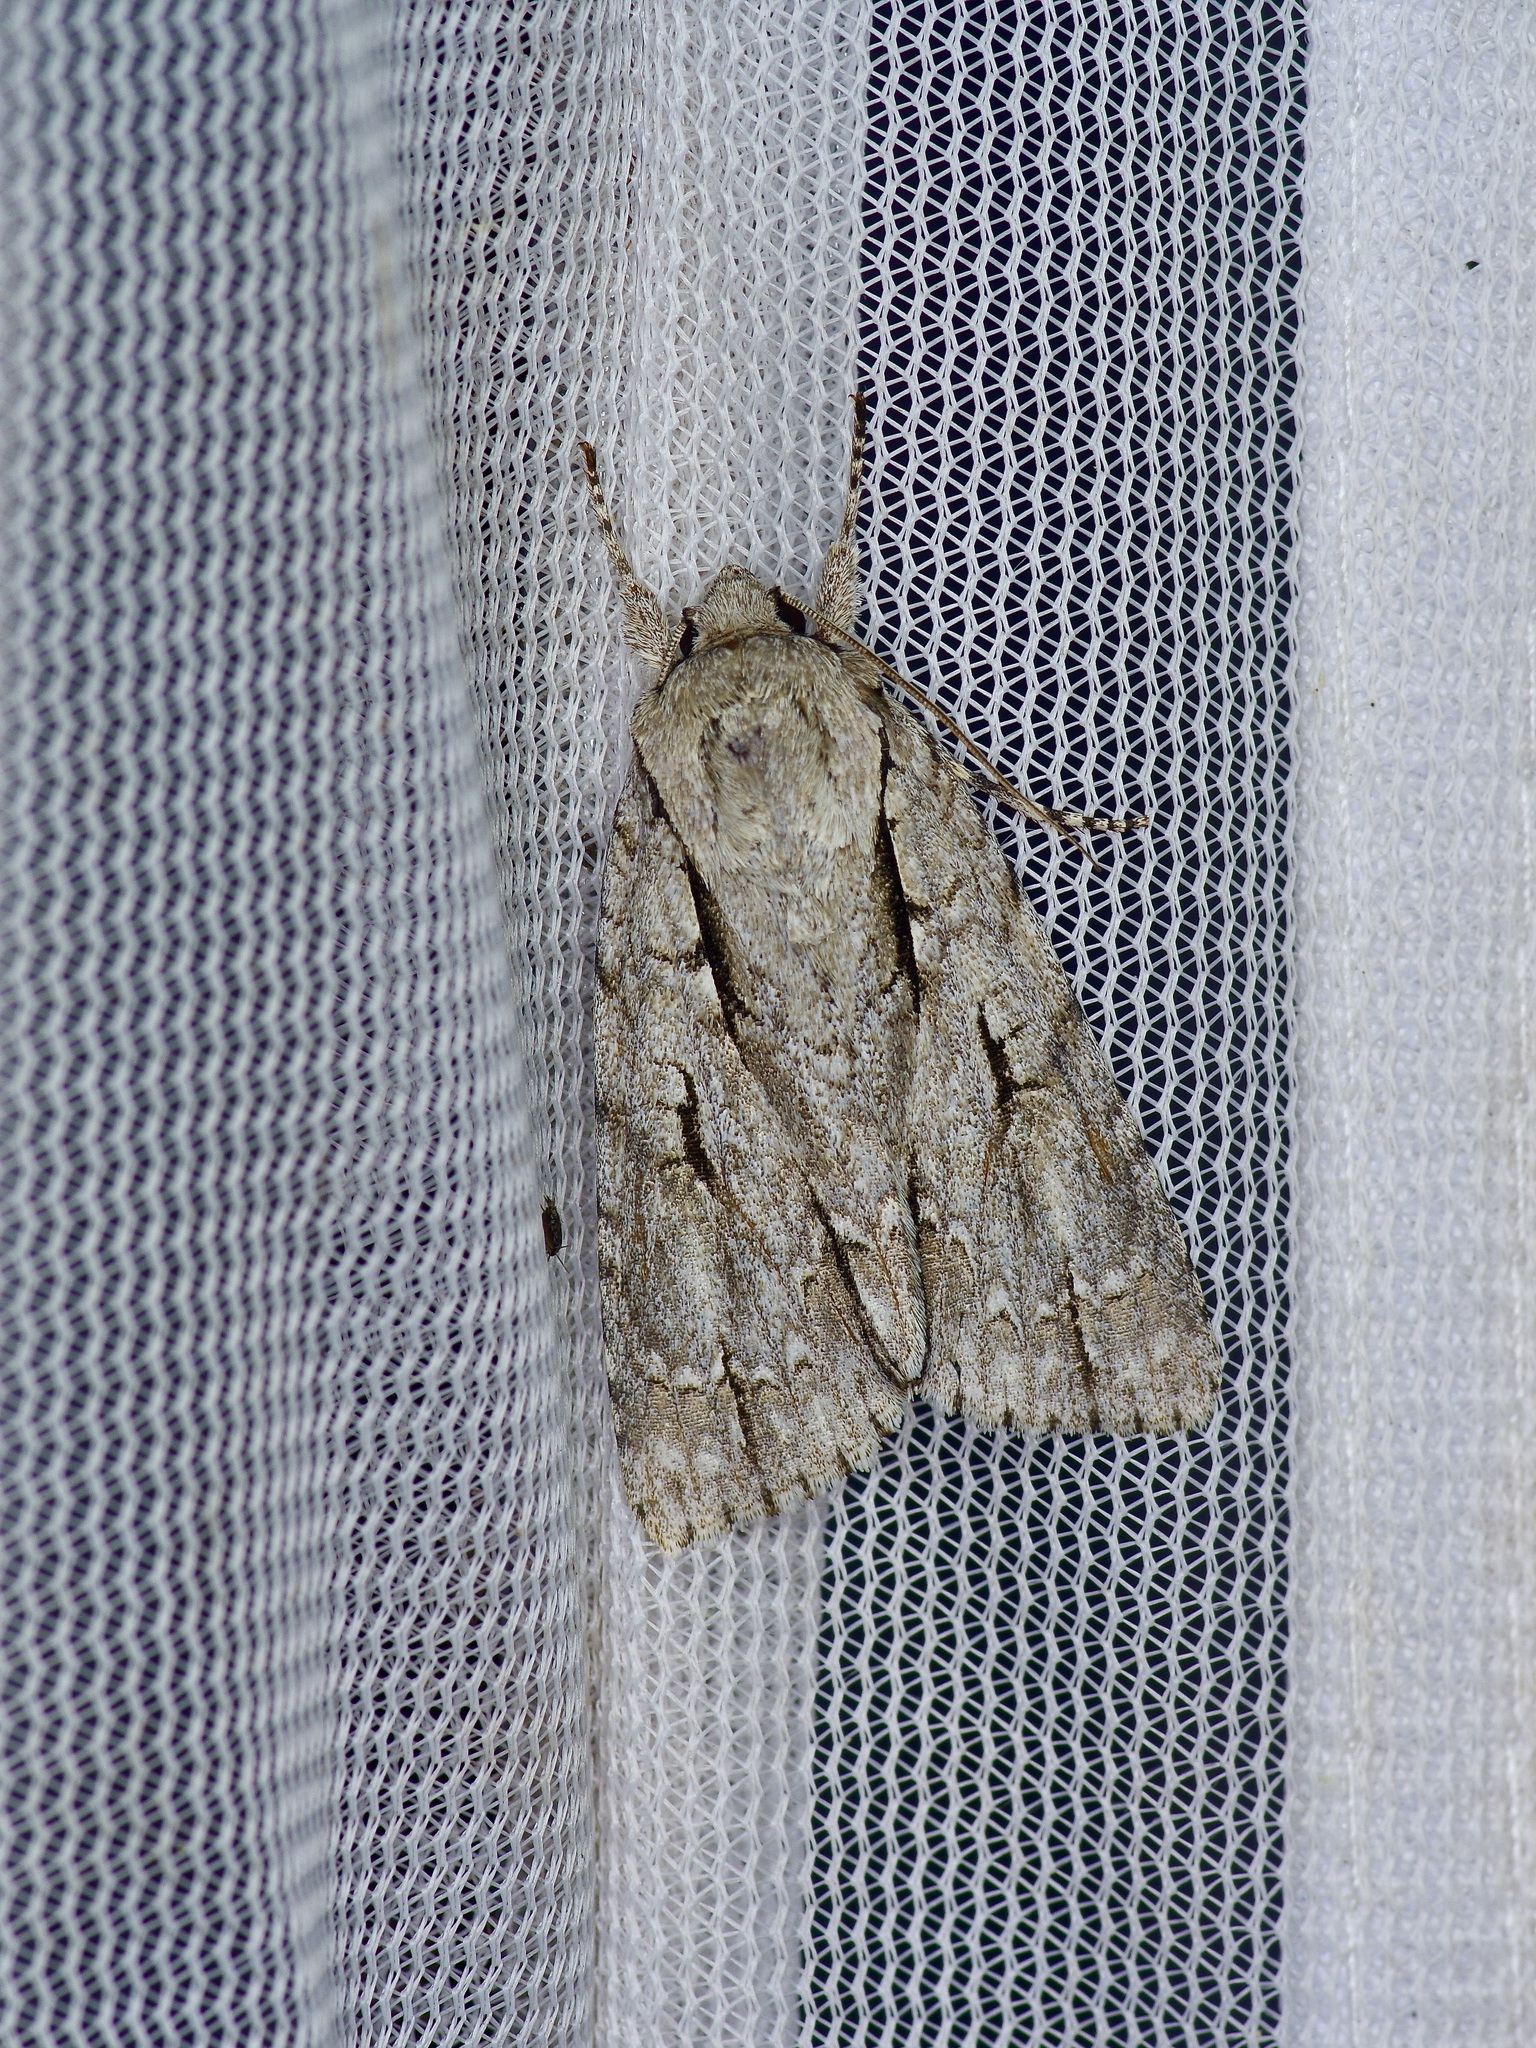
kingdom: Animalia
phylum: Arthropoda
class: Insecta
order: Lepidoptera
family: Noctuidae
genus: Acronicta
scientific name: Acronicta lobeliae
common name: Greater oak dagger
